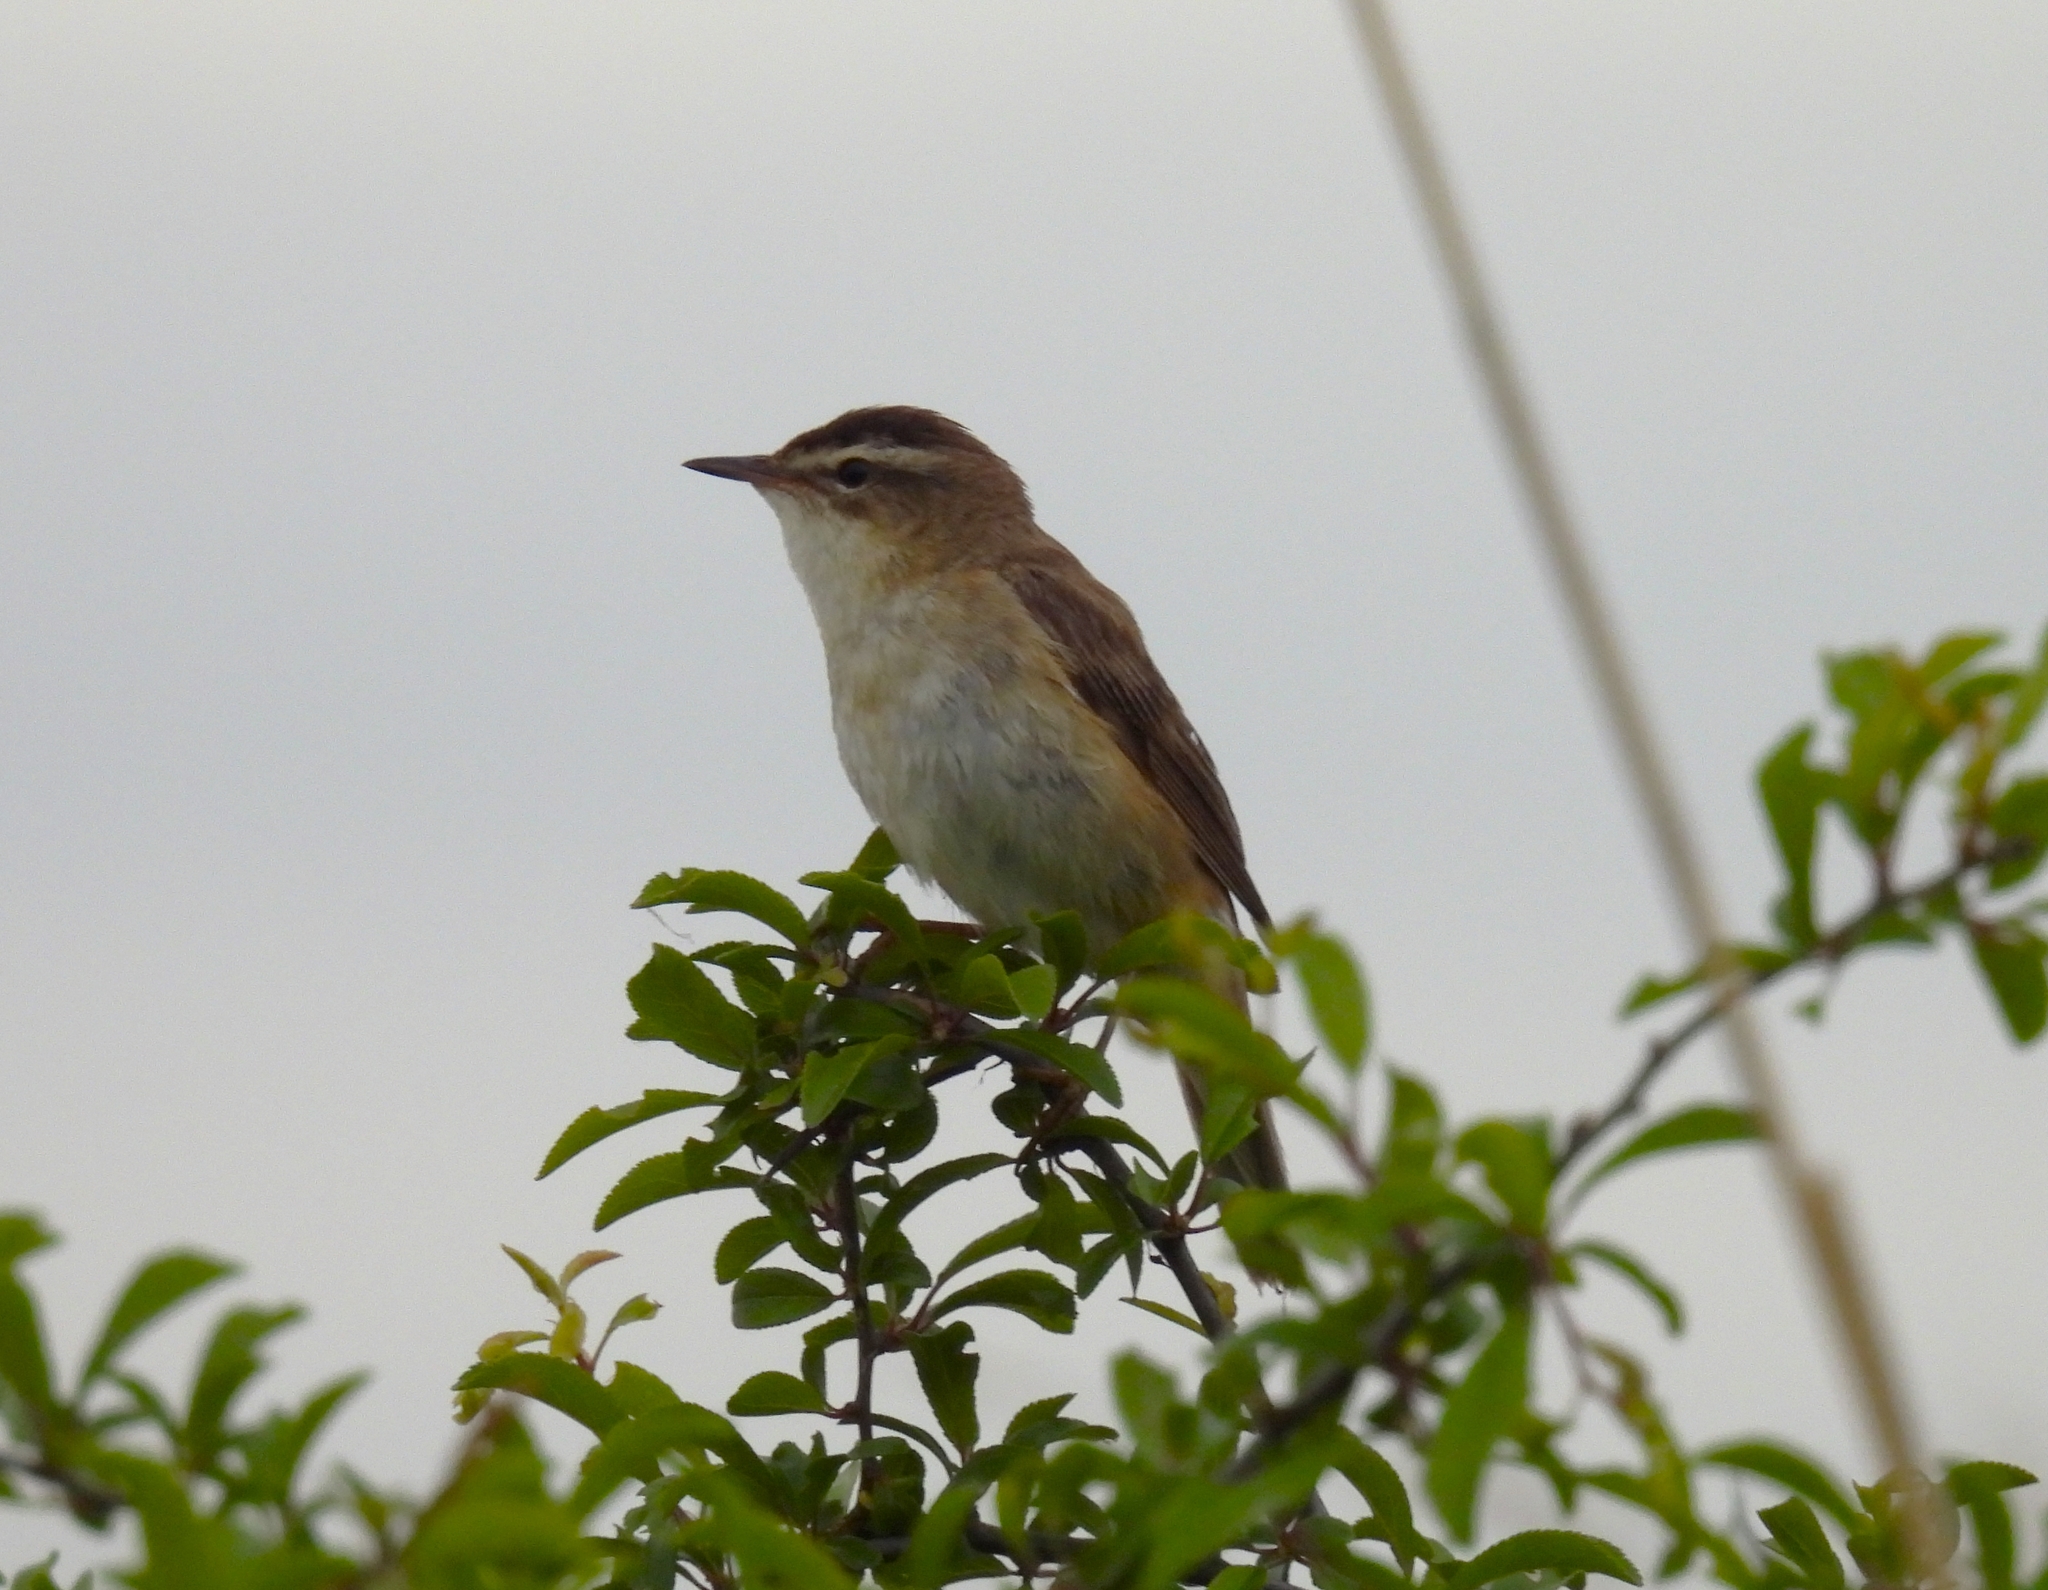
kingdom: Animalia
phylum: Chordata
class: Aves
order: Passeriformes
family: Acrocephalidae
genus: Acrocephalus
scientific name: Acrocephalus schoenobaenus
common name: Sedge warbler
